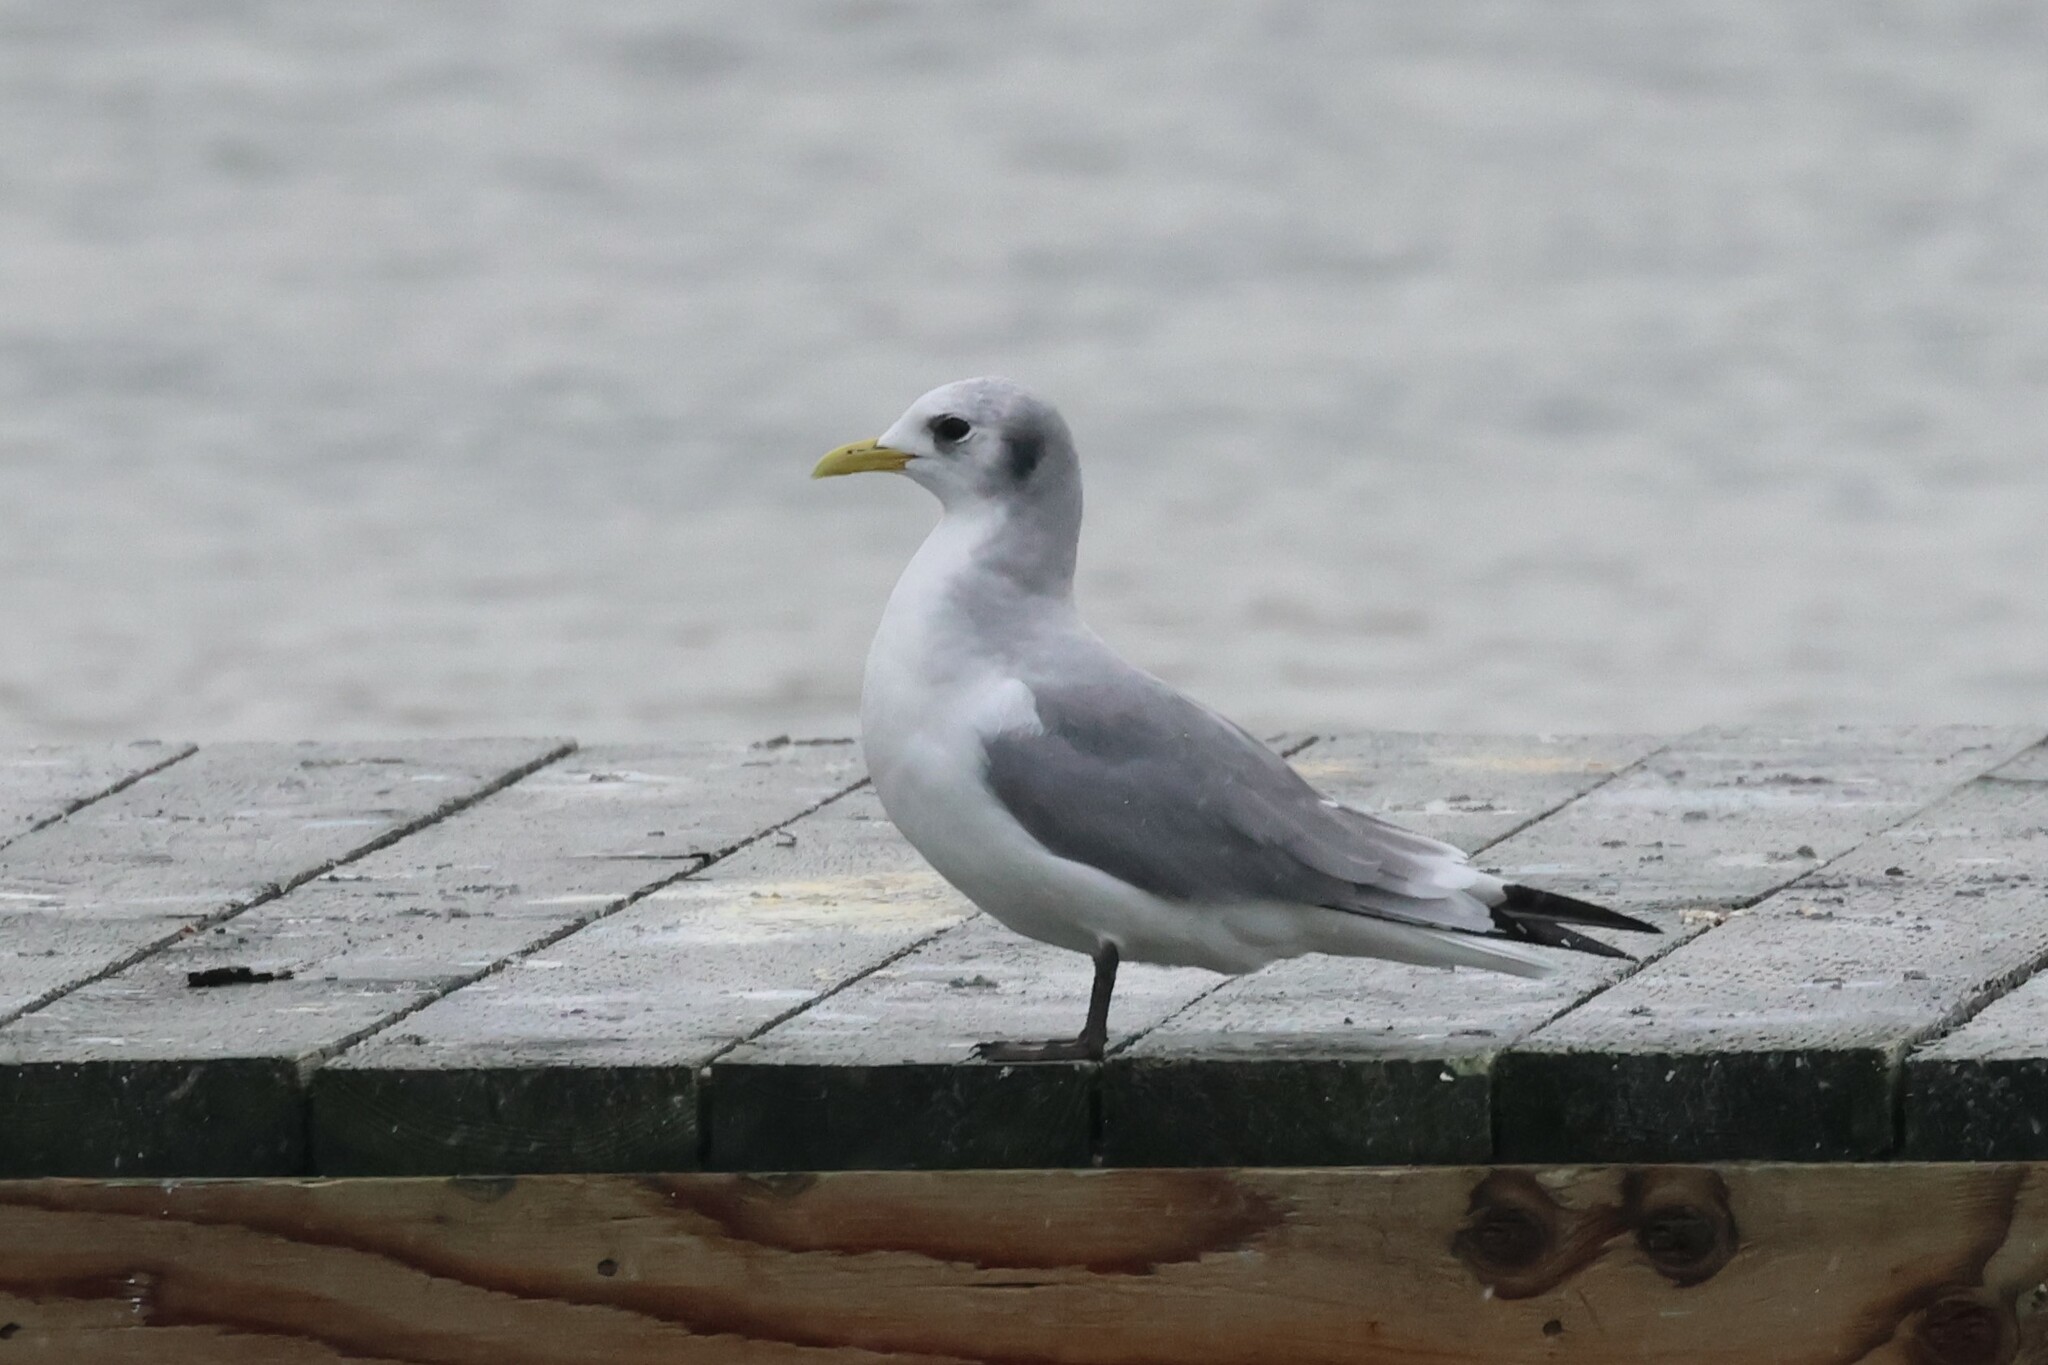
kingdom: Animalia
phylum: Chordata
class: Aves
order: Charadriiformes
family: Laridae
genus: Rissa
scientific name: Rissa tridactyla
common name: Black-legged kittiwake
